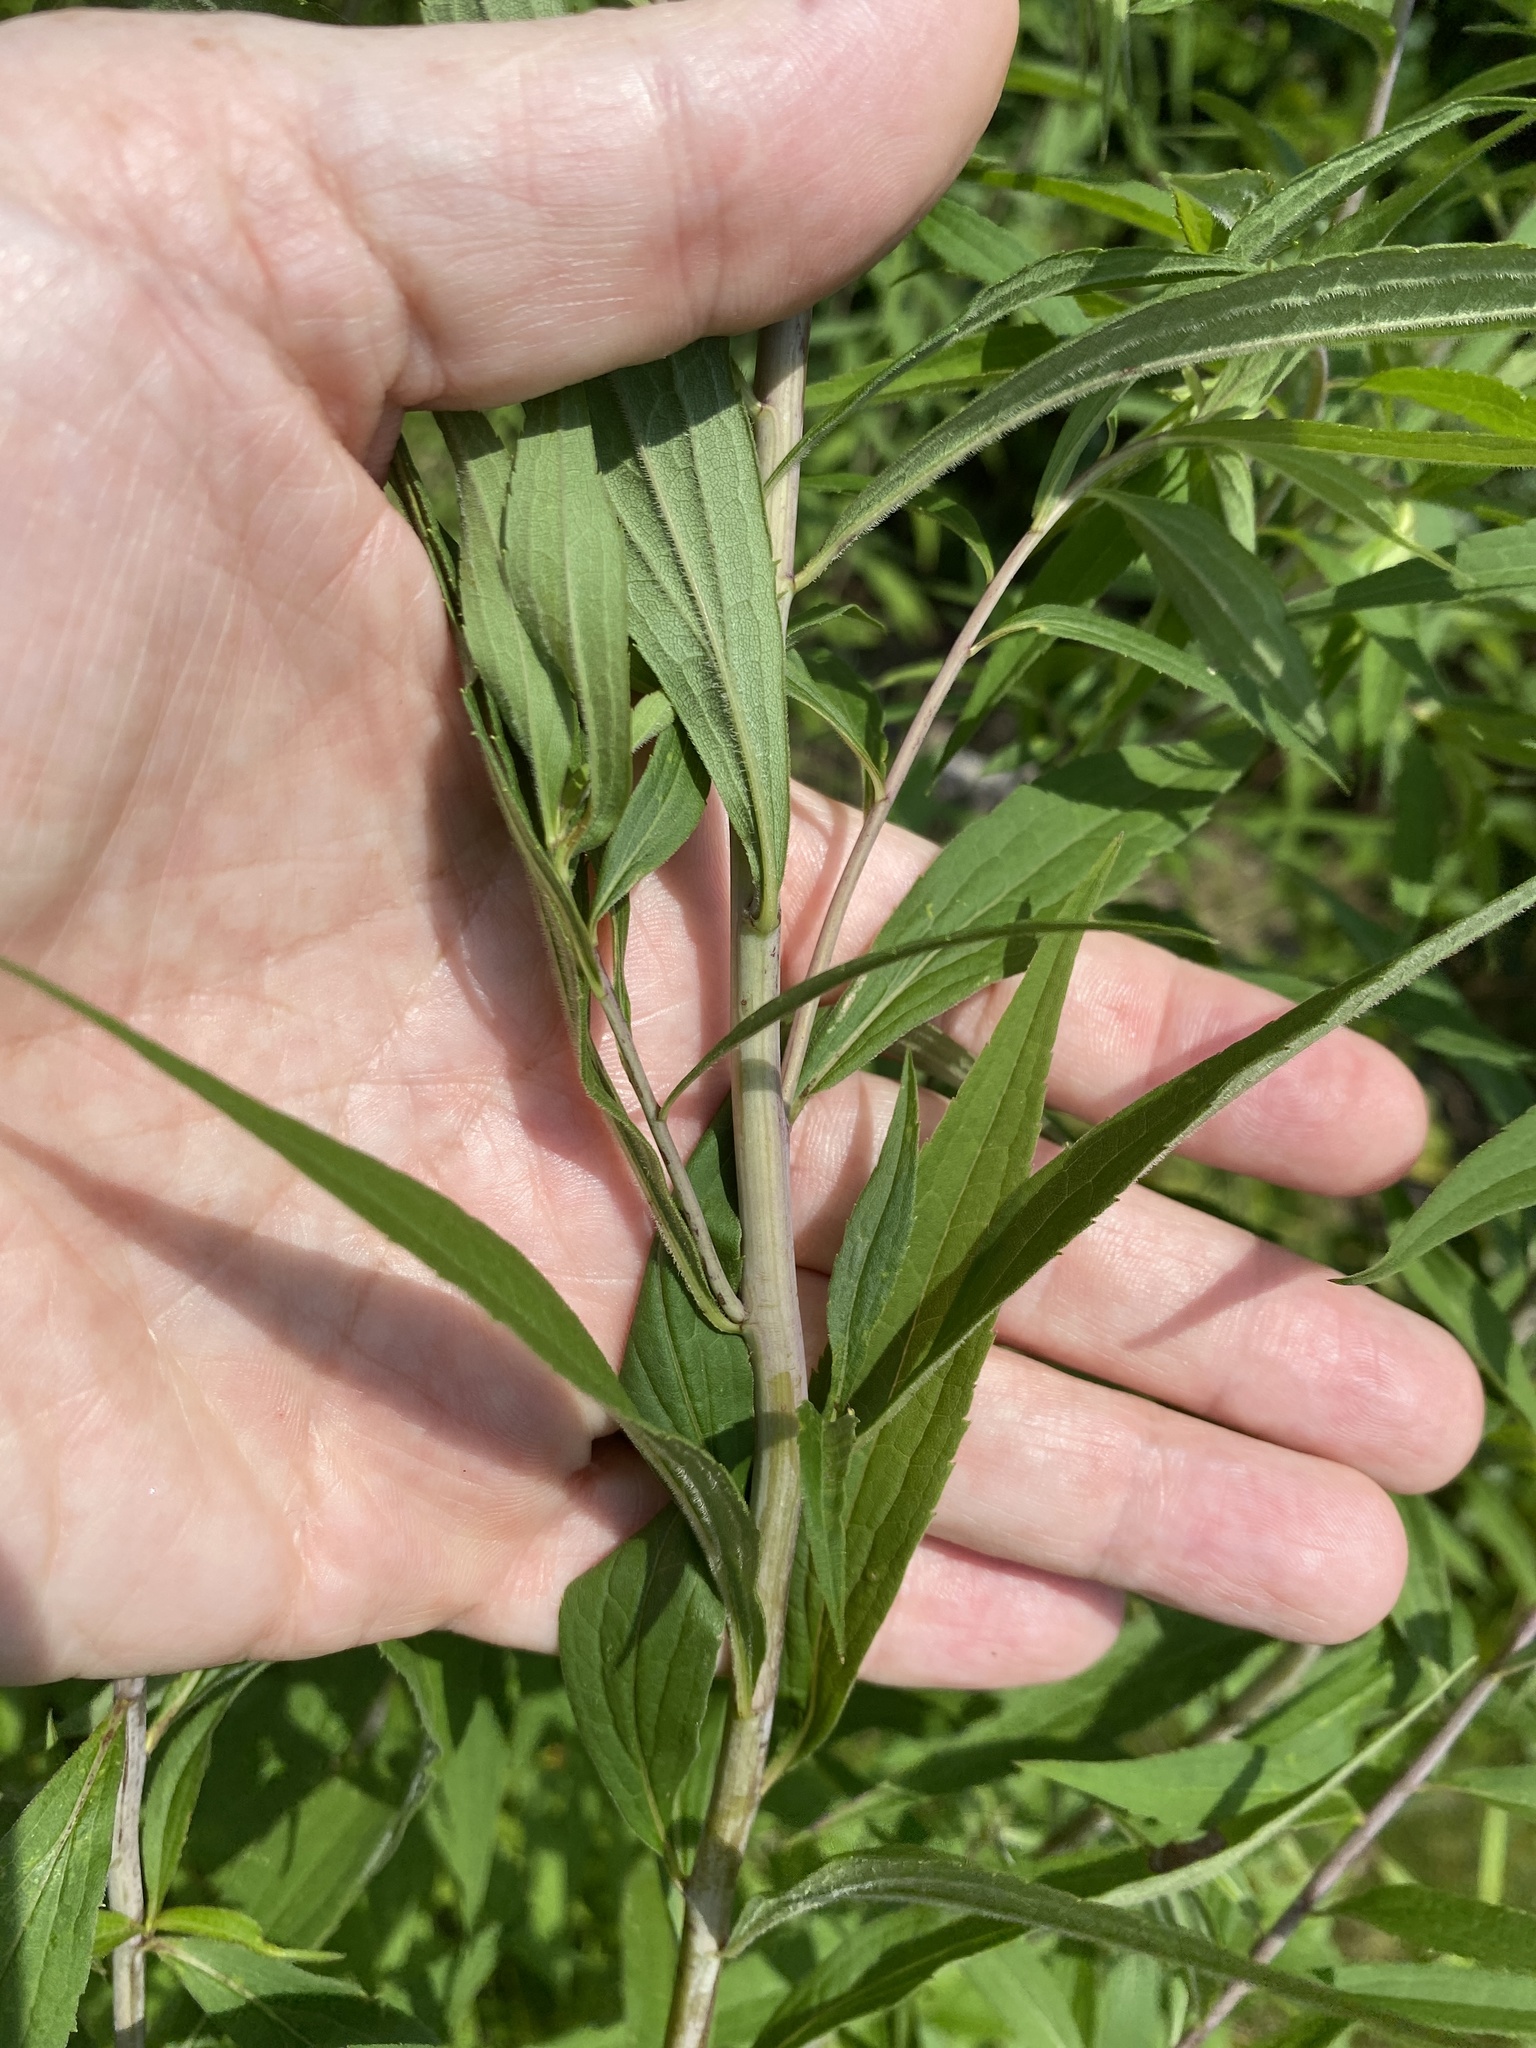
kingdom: Plantae
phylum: Tracheophyta
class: Magnoliopsida
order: Asterales
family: Asteraceae
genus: Solidago
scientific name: Solidago gigantea
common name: Giant goldenrod
